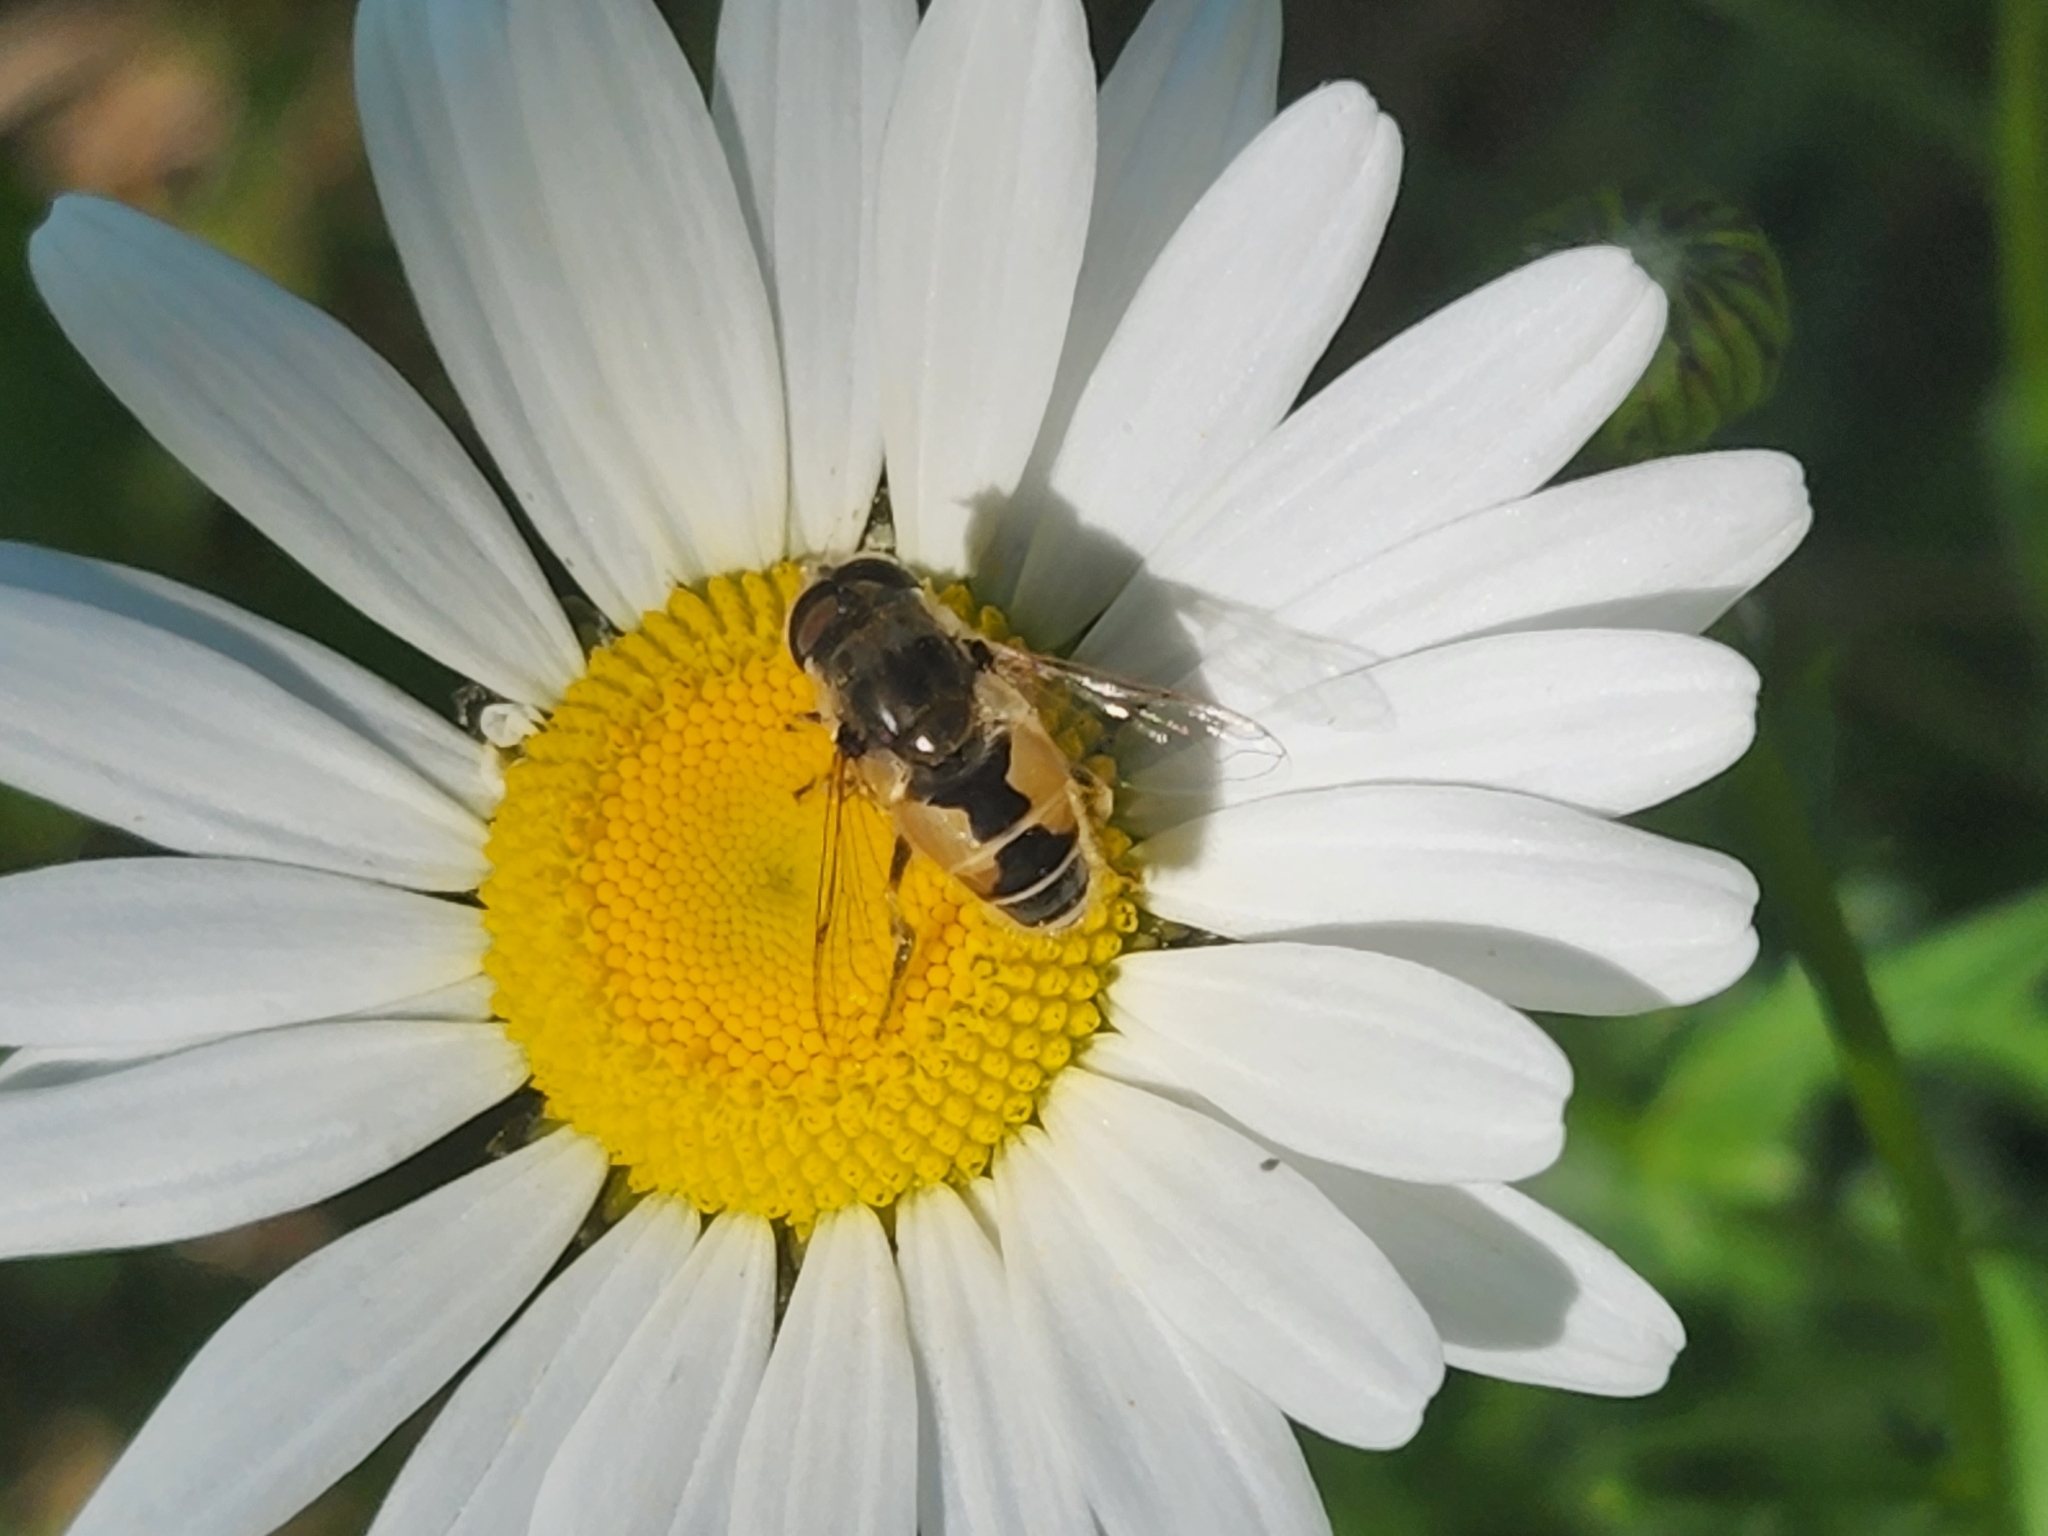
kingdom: Animalia
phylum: Arthropoda
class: Insecta
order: Diptera
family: Syrphidae
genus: Eristalis
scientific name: Eristalis arbustorum
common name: Hover fly
